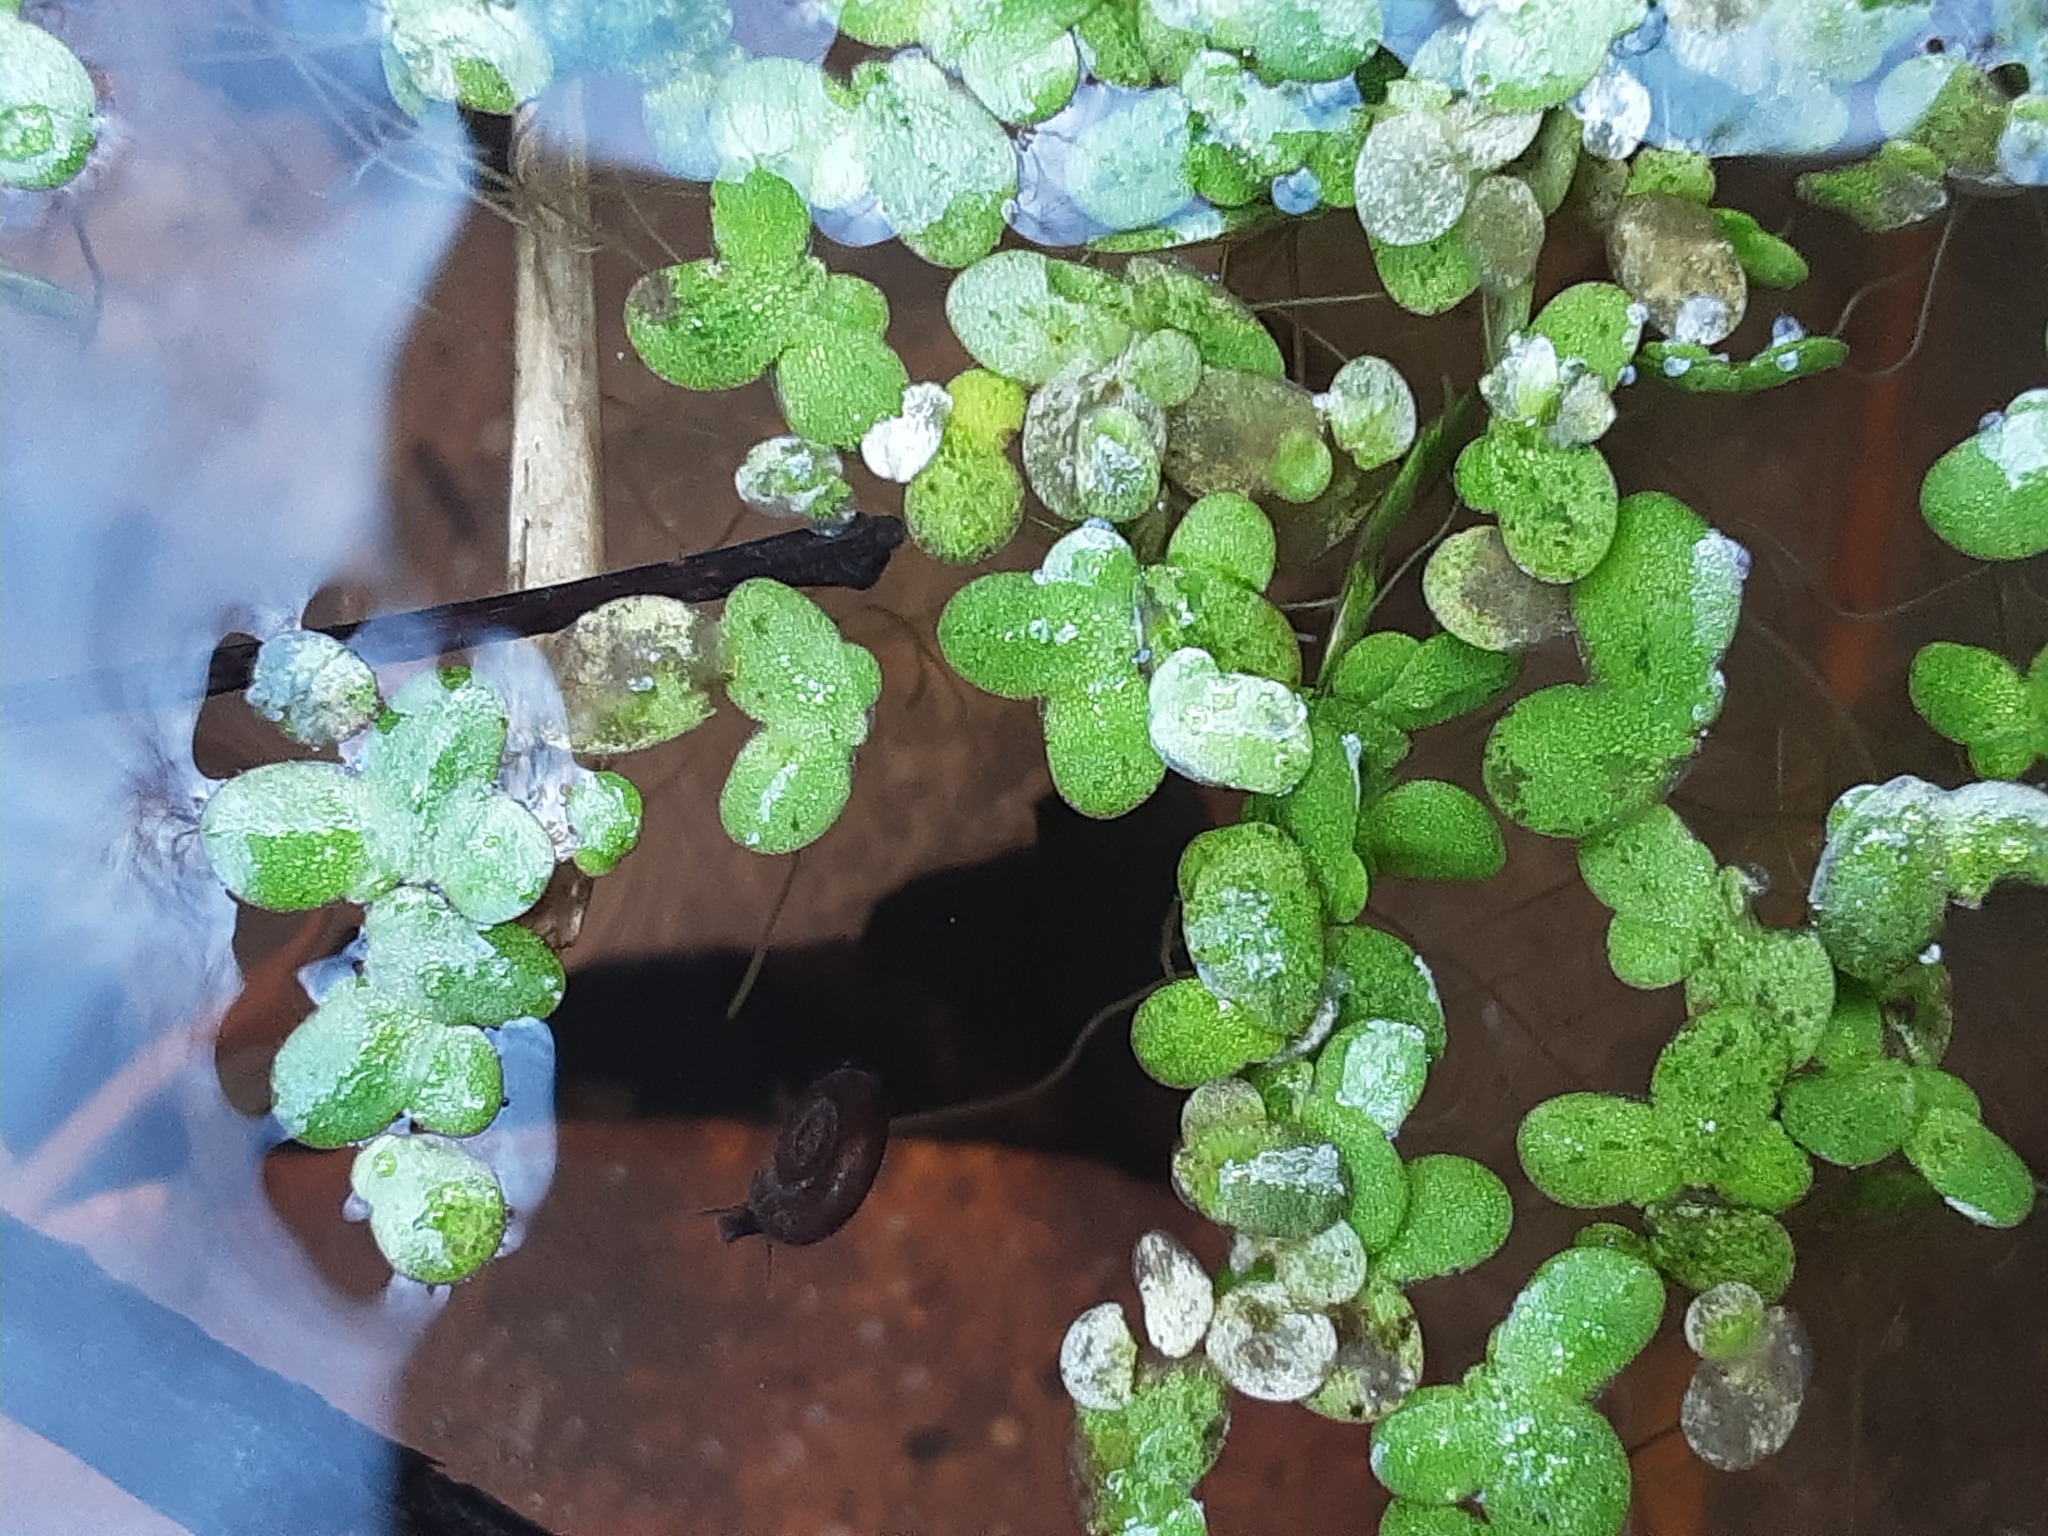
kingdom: Plantae
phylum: Tracheophyta
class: Liliopsida
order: Alismatales
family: Araceae
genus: Lemna
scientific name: Lemna minor
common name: Common duckweed
